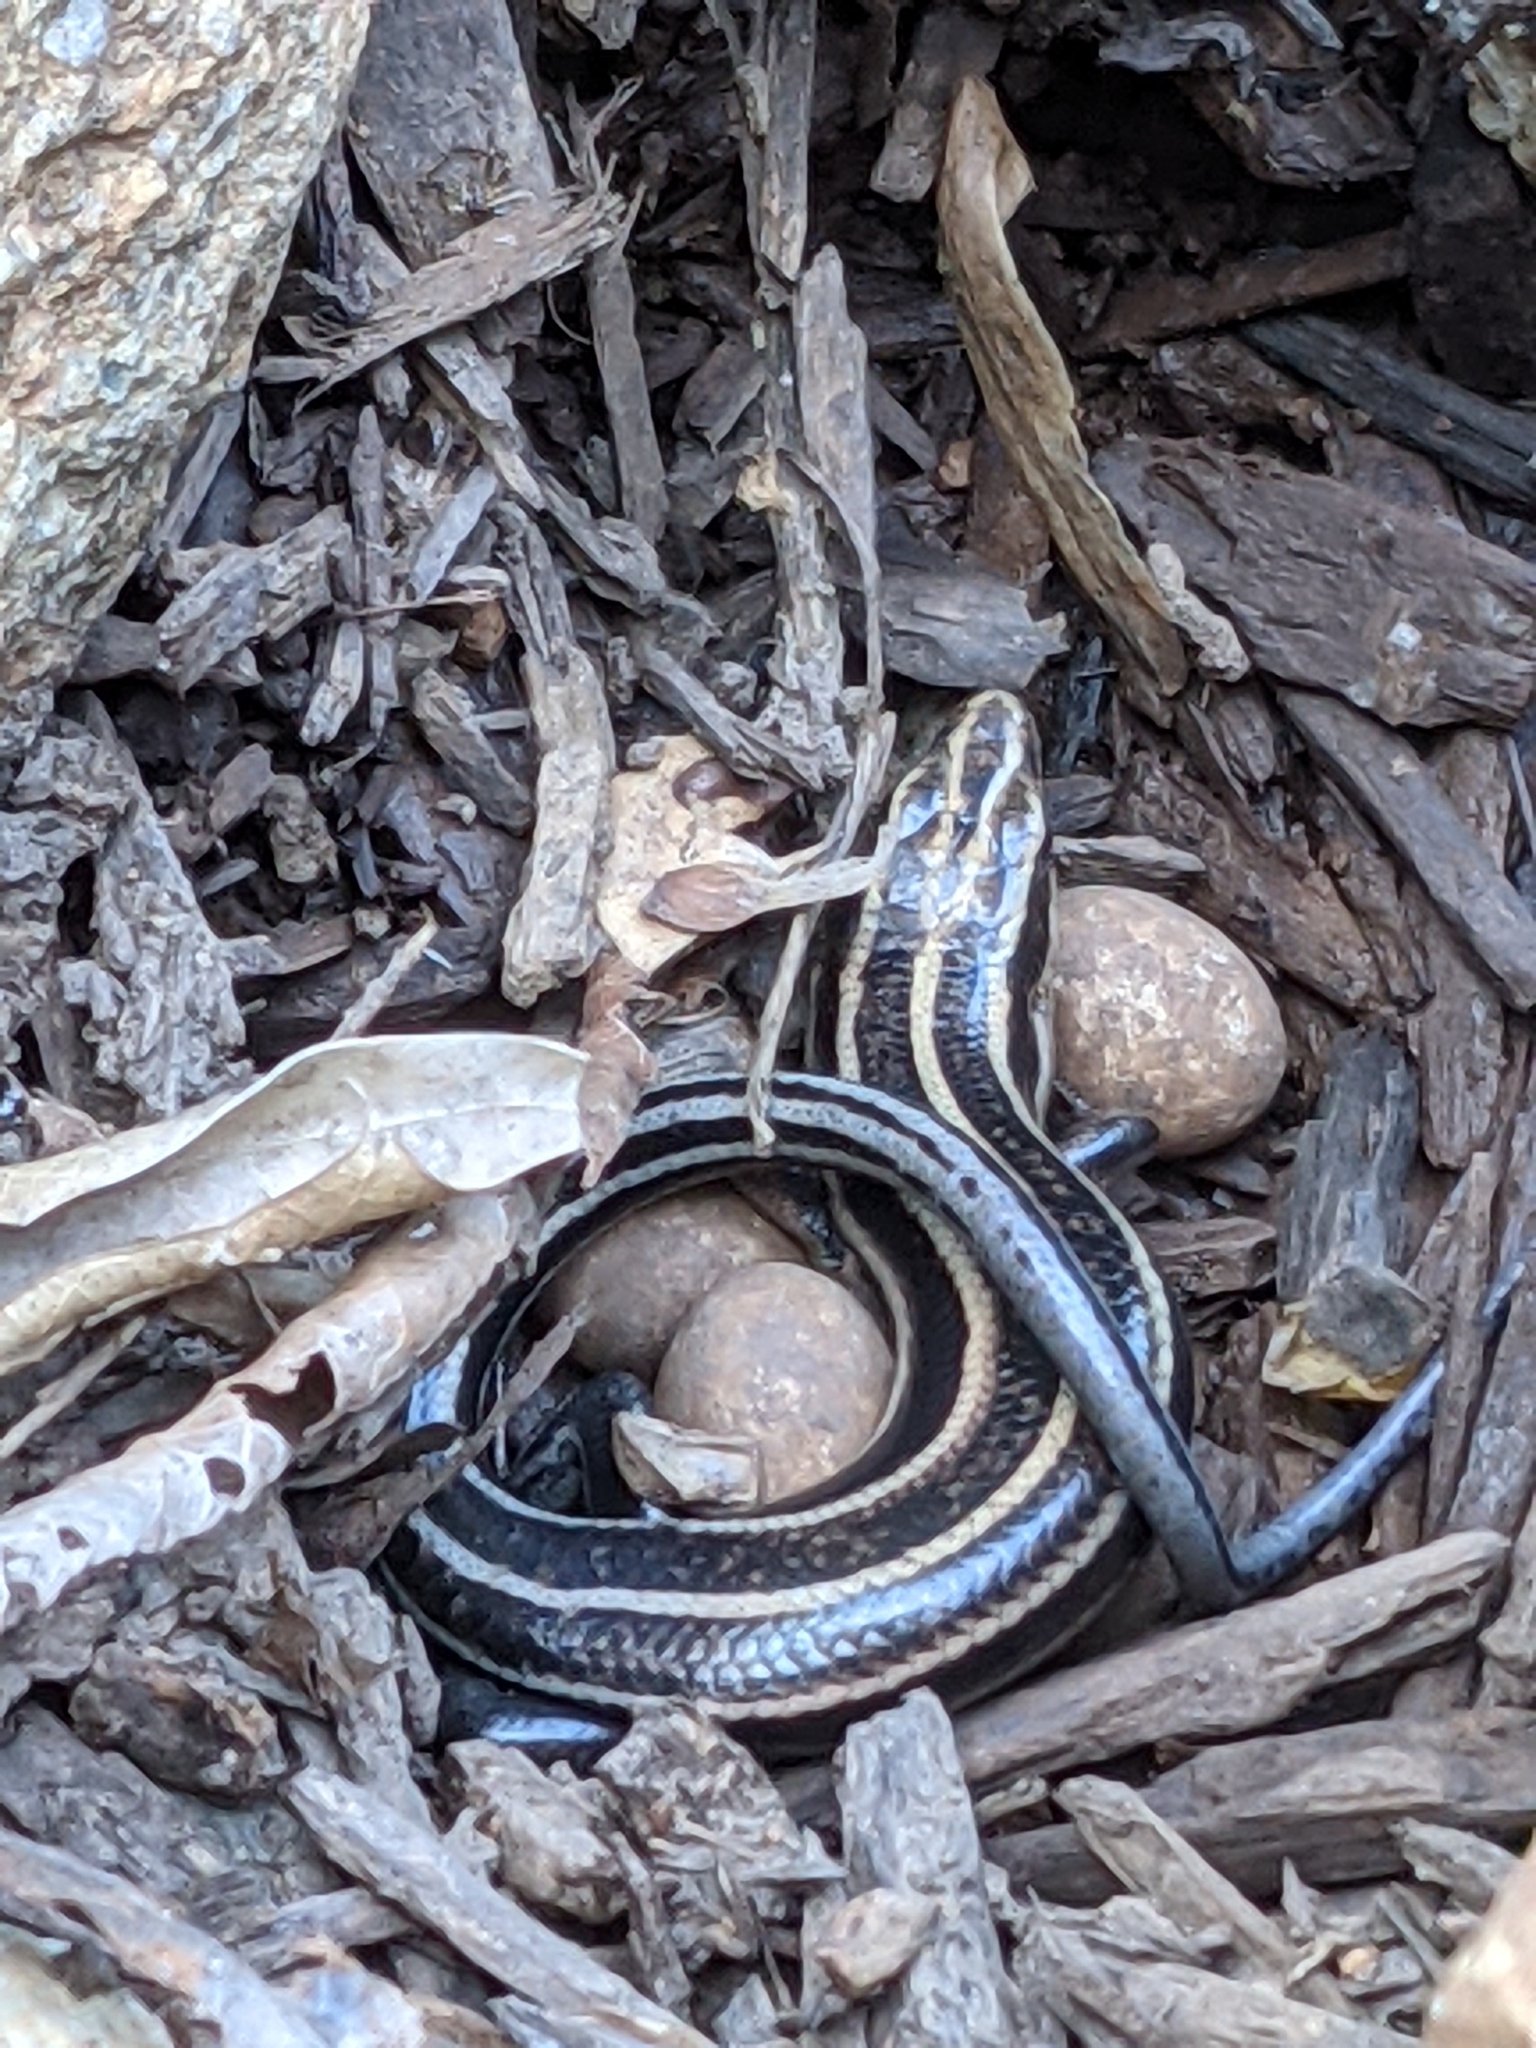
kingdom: Animalia
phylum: Chordata
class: Squamata
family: Scincidae
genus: Plestiodon
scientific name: Plestiodon fasciatus
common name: Five-lined skink
